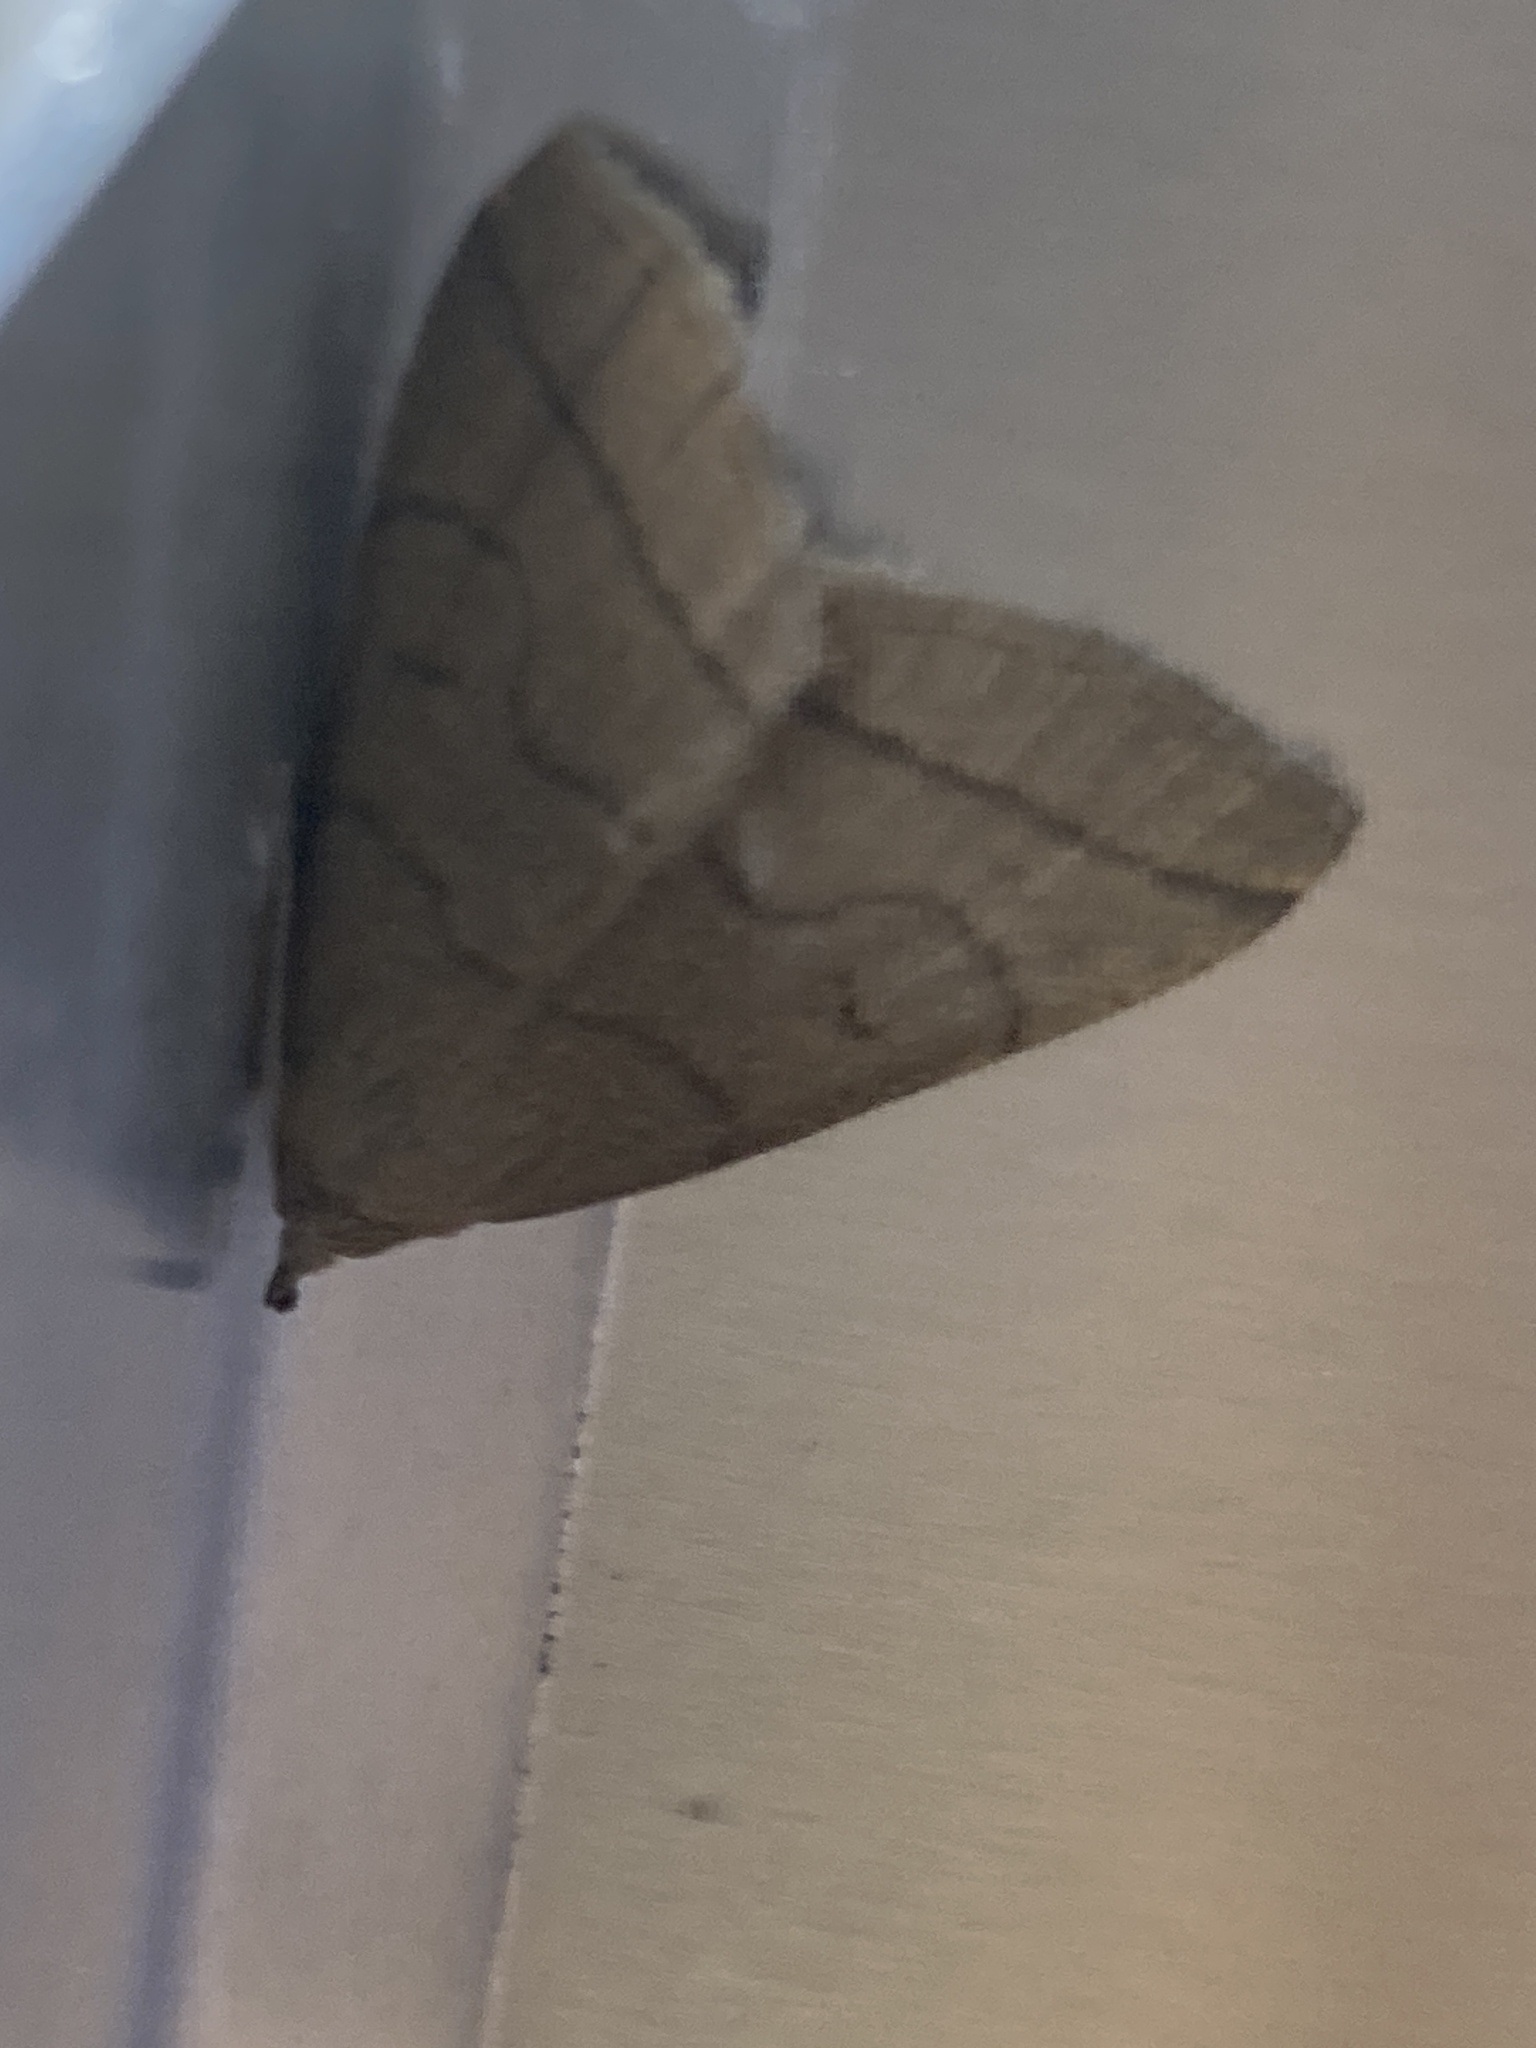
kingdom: Animalia
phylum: Arthropoda
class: Insecta
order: Lepidoptera
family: Erebidae
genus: Herminia
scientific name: Herminia tarsipennalis
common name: Fan-foot
